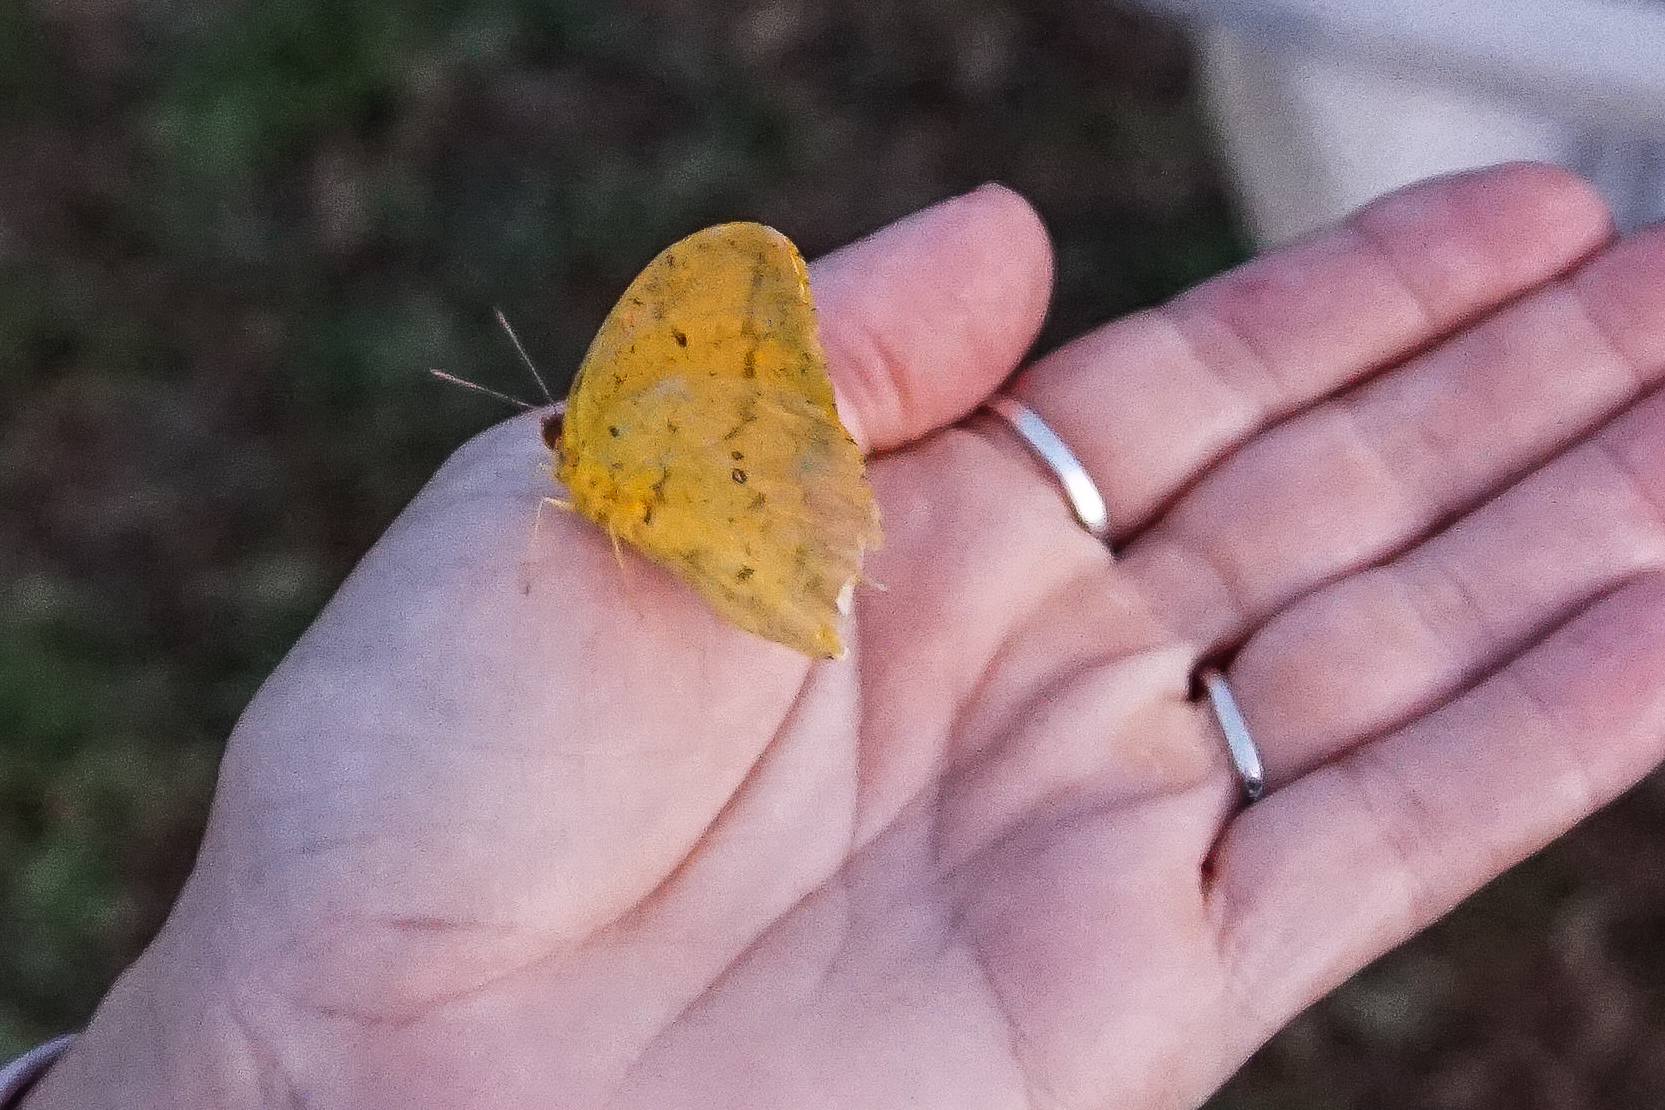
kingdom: Animalia
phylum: Arthropoda
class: Insecta
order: Lepidoptera
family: Pieridae
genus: Phoebis
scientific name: Phoebis agarithe
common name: Large orange sulphur
